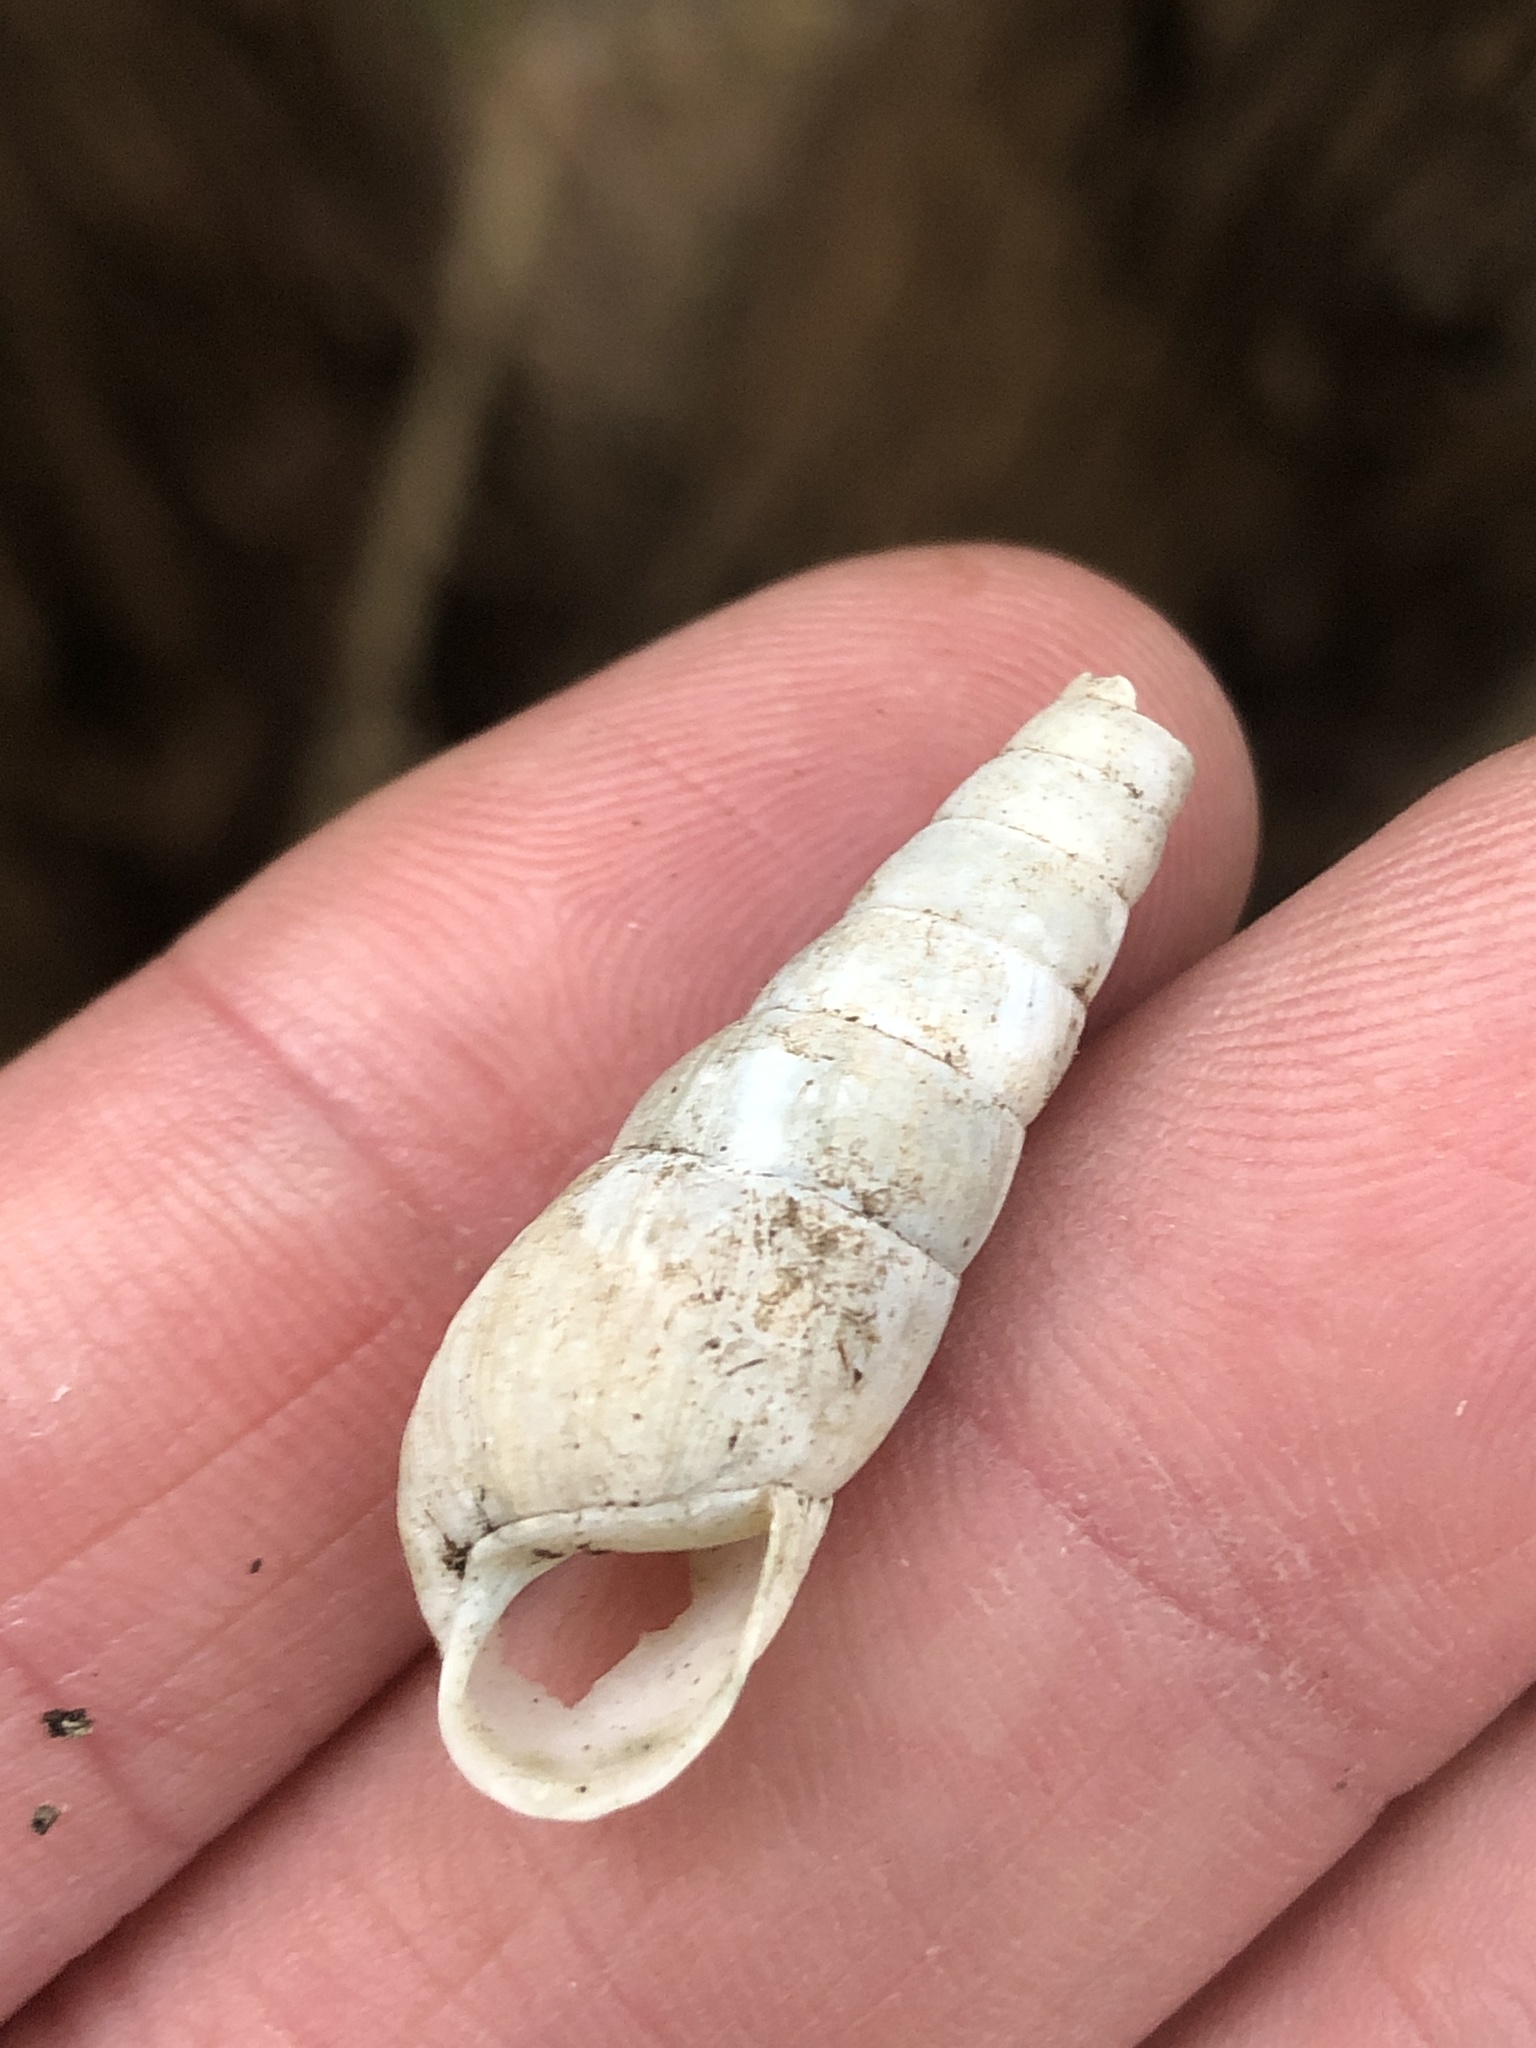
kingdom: Animalia
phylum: Mollusca
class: Gastropoda
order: Stylommatophora
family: Achatinidae
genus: Rumina
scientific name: Rumina decollata
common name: Decollate snail
